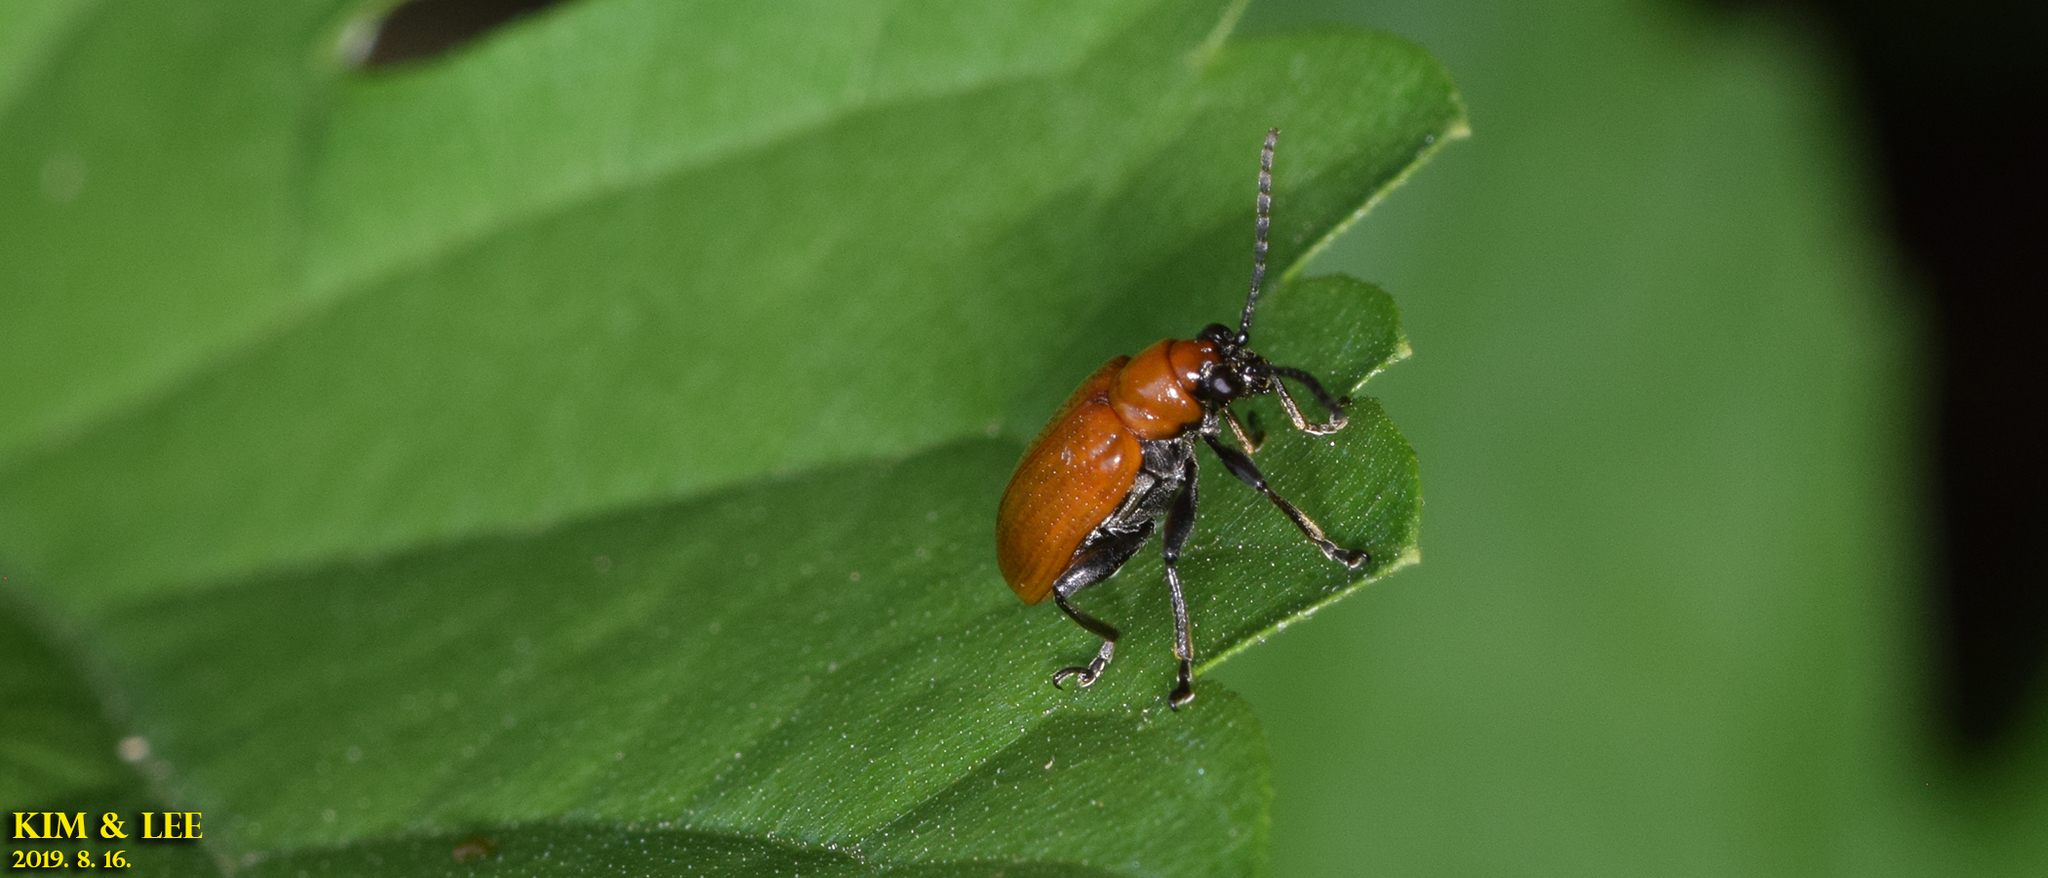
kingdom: Animalia
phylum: Arthropoda
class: Insecta
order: Coleoptera
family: Chrysomelidae
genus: Lema
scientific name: Lema diversa
